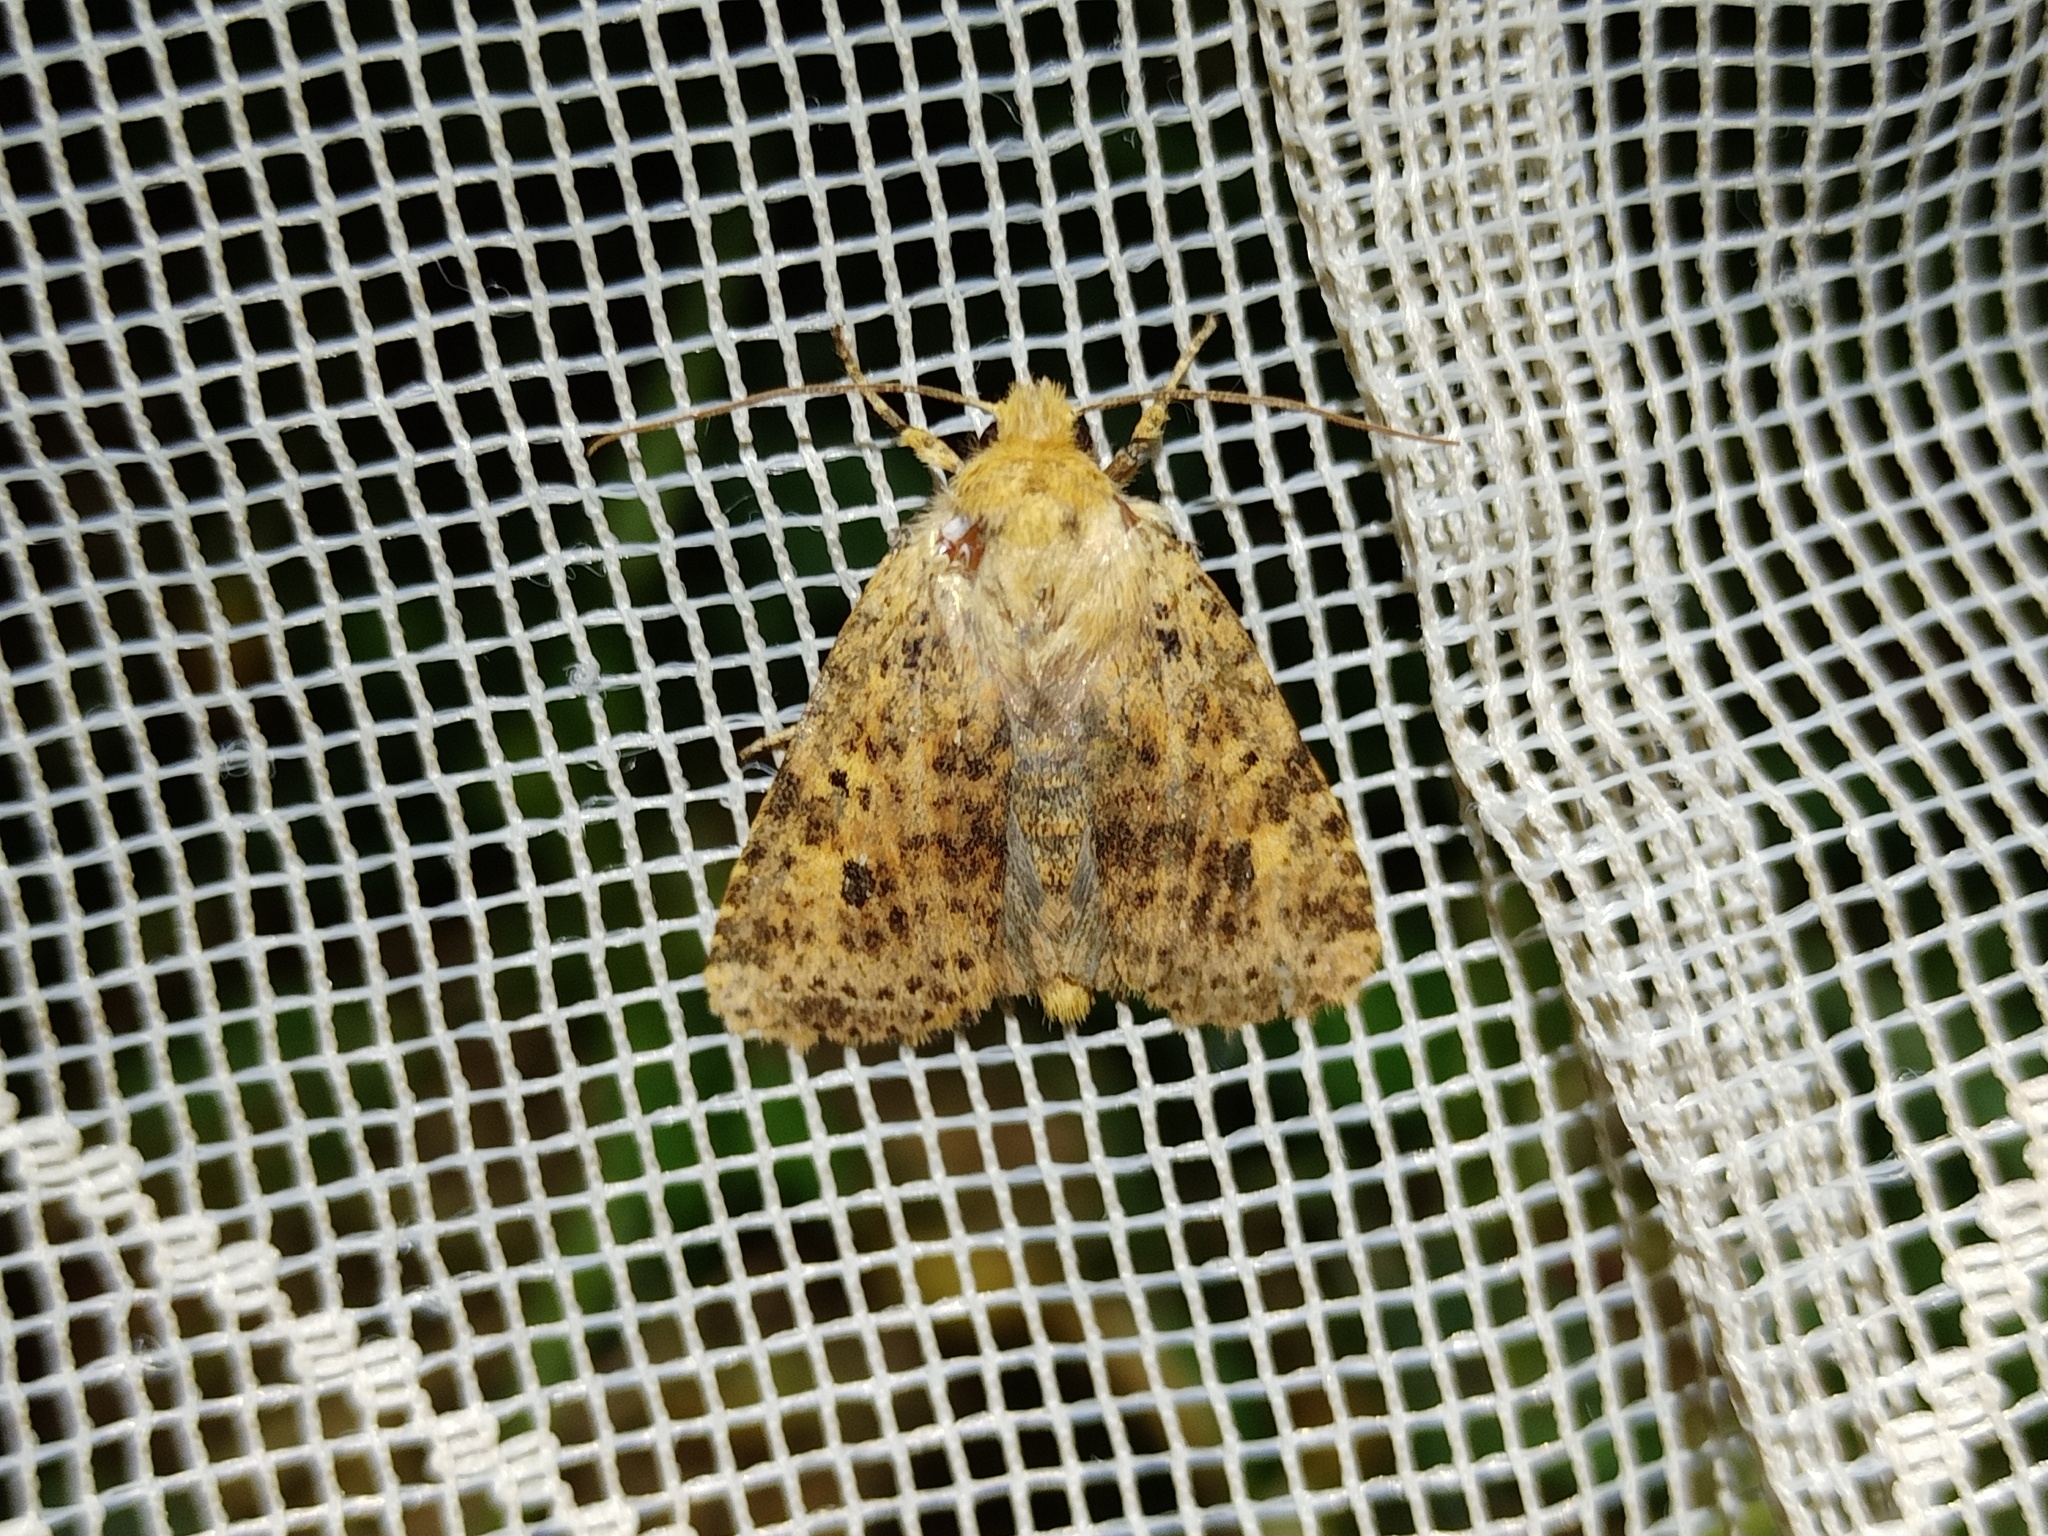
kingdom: Animalia
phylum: Arthropoda
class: Insecta
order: Lepidoptera
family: Noctuidae
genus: Conistra
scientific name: Conistra rubiginea
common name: Dotted chestnut
